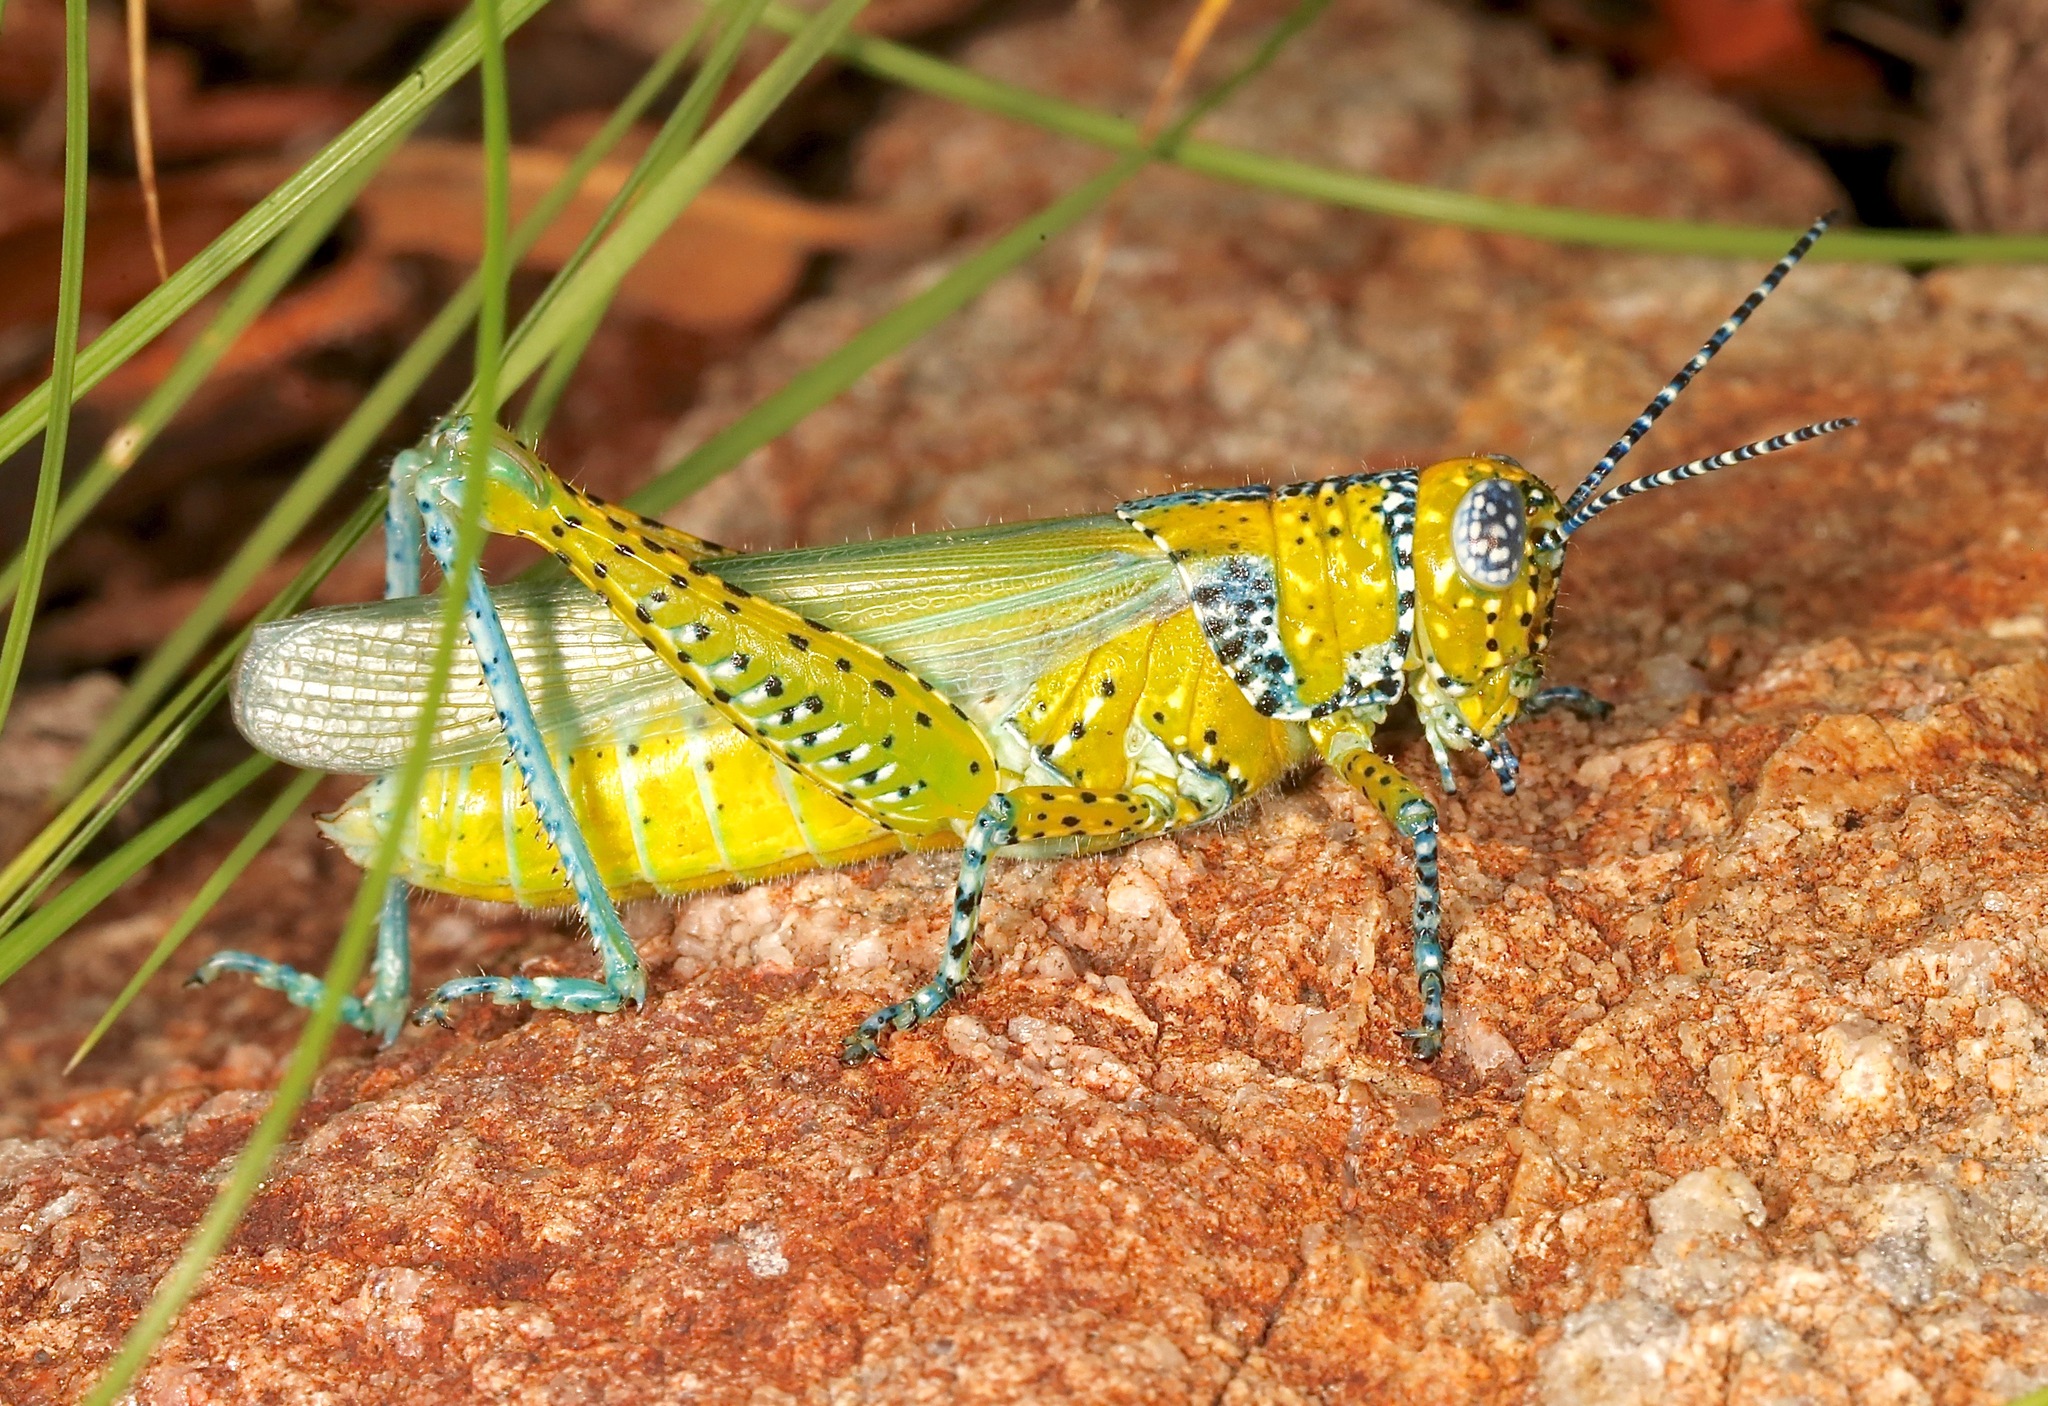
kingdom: Animalia
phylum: Arthropoda
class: Insecta
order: Orthoptera
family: Acrididae
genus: Poecilotettix
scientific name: Poecilotettix pantherinus
